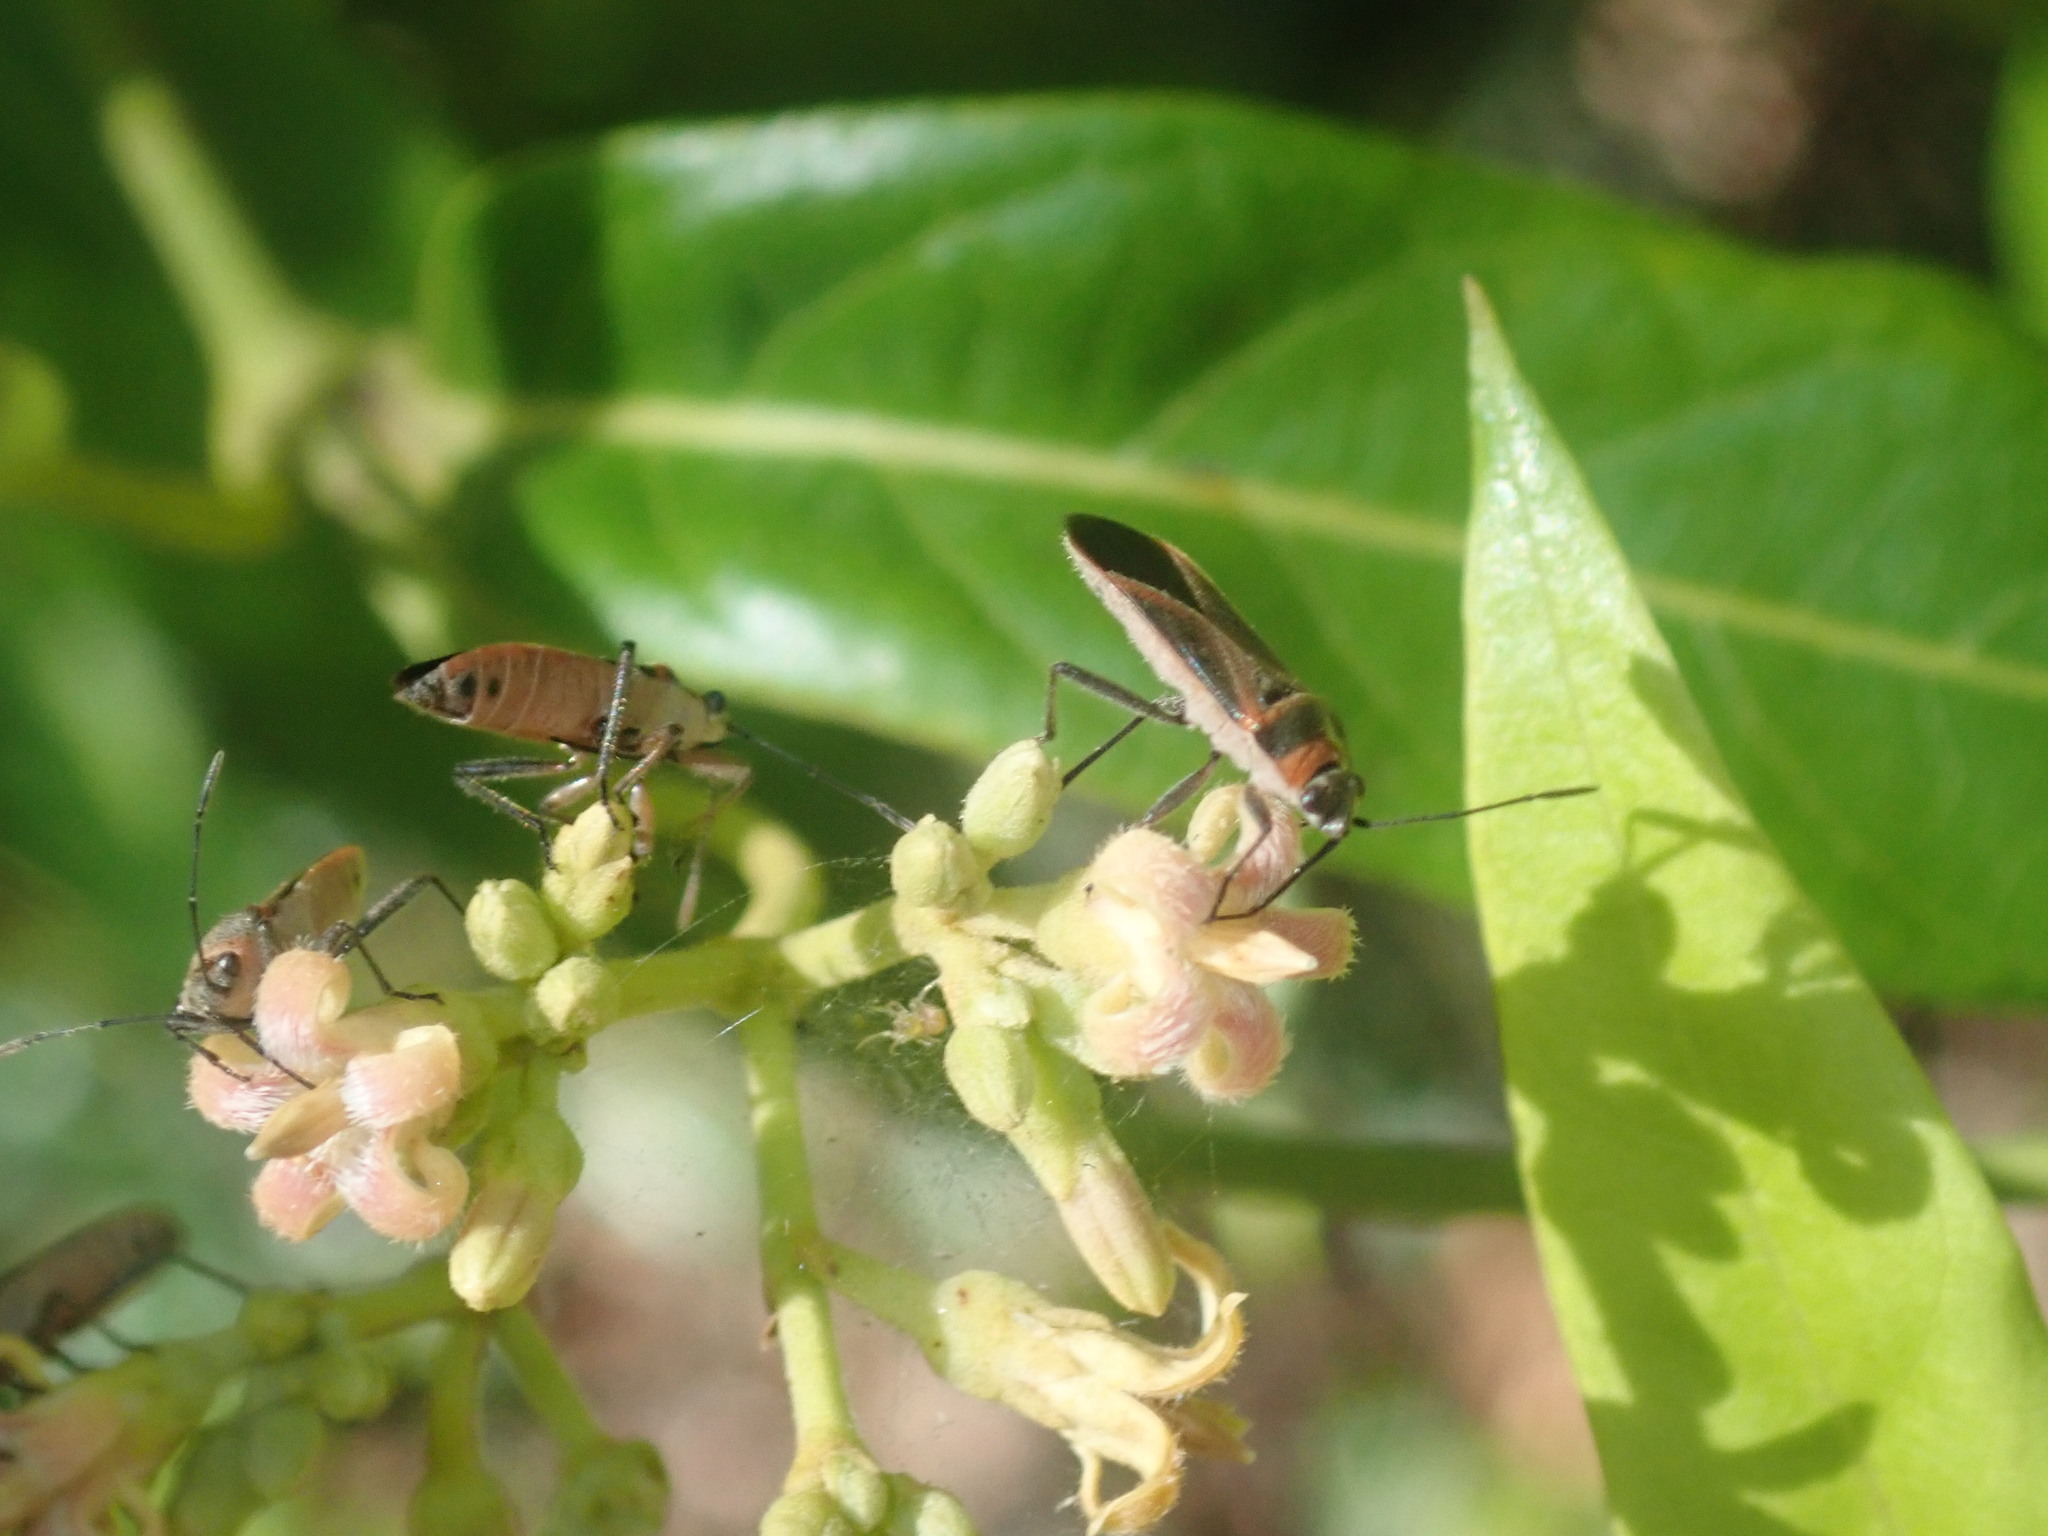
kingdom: Animalia
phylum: Arthropoda
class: Insecta
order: Hemiptera
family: Lygaeidae
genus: Arocatus
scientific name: Arocatus rusticus
